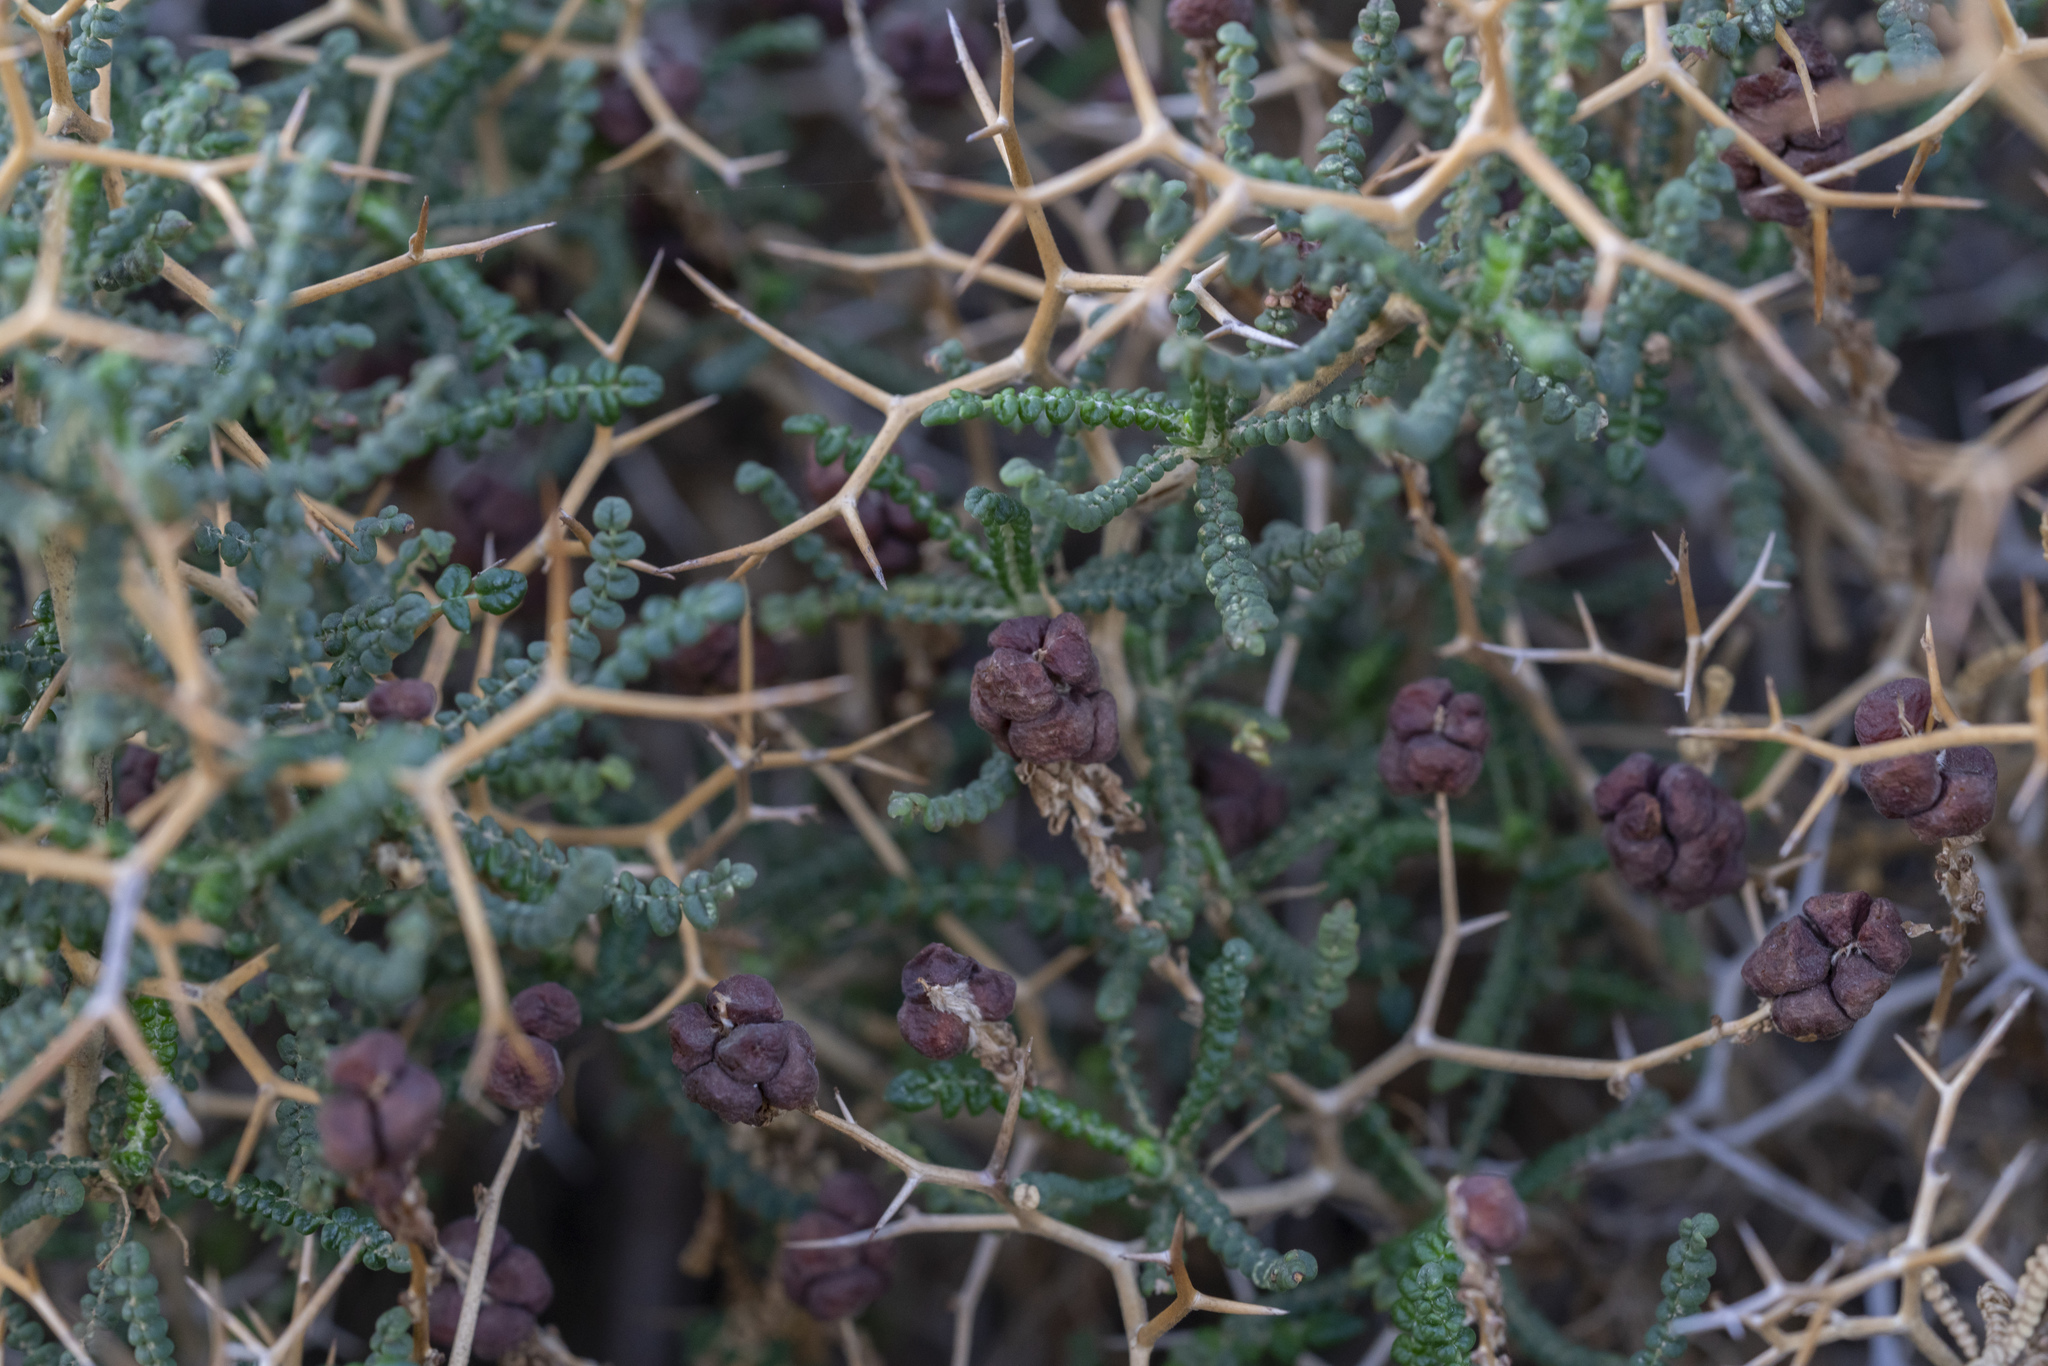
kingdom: Plantae
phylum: Tracheophyta
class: Magnoliopsida
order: Rosales
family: Rosaceae
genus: Sarcopoterium
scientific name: Sarcopoterium spinosum
